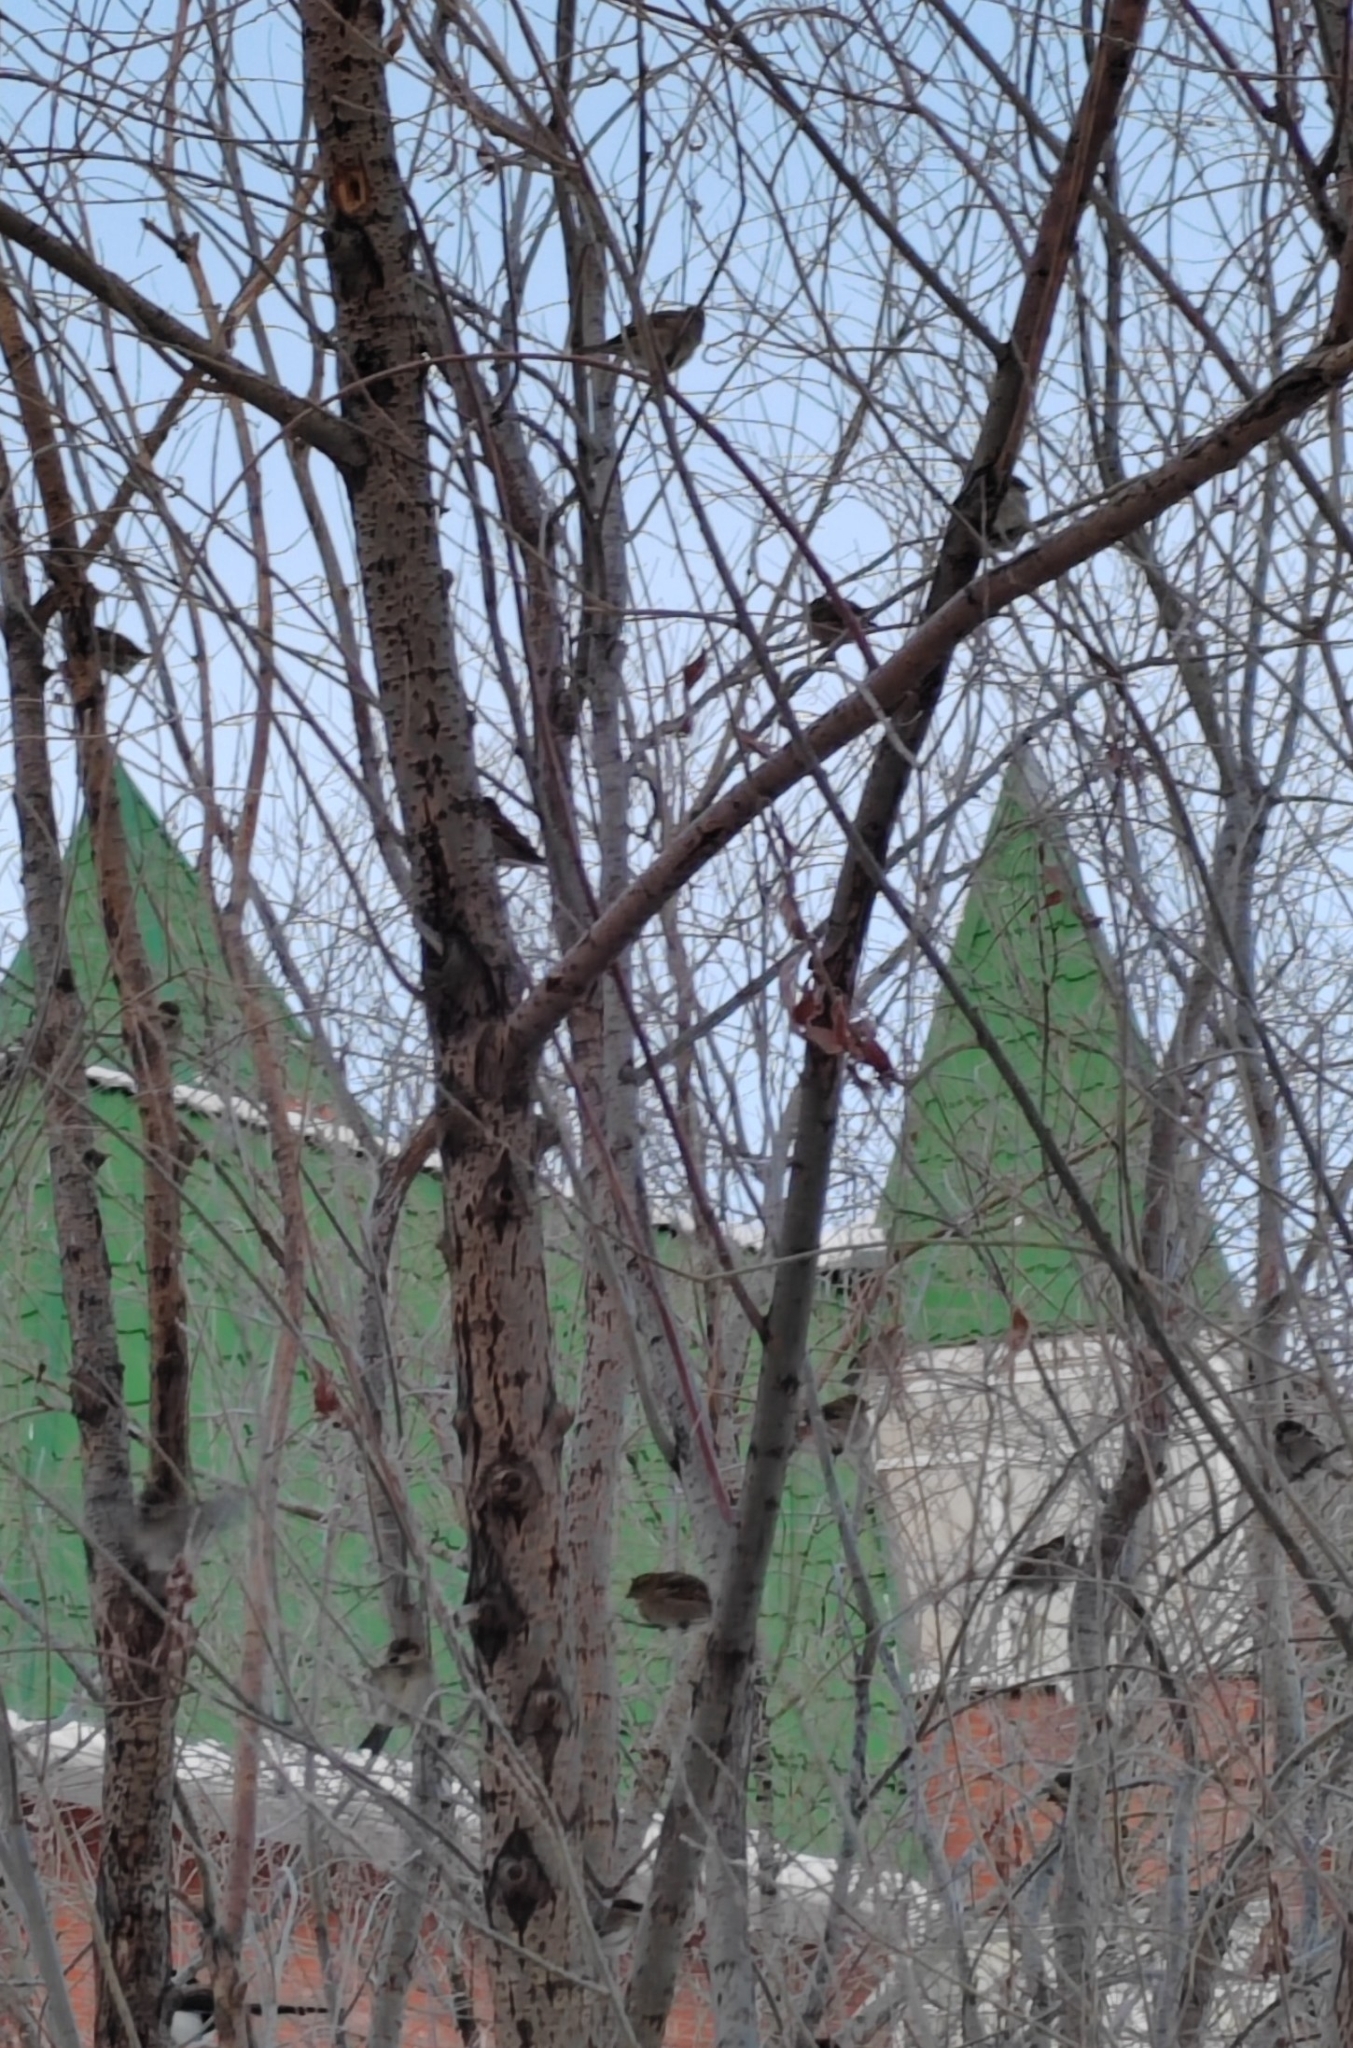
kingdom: Animalia
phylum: Chordata
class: Aves
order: Passeriformes
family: Passeridae
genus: Passer
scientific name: Passer domesticus
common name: House sparrow
